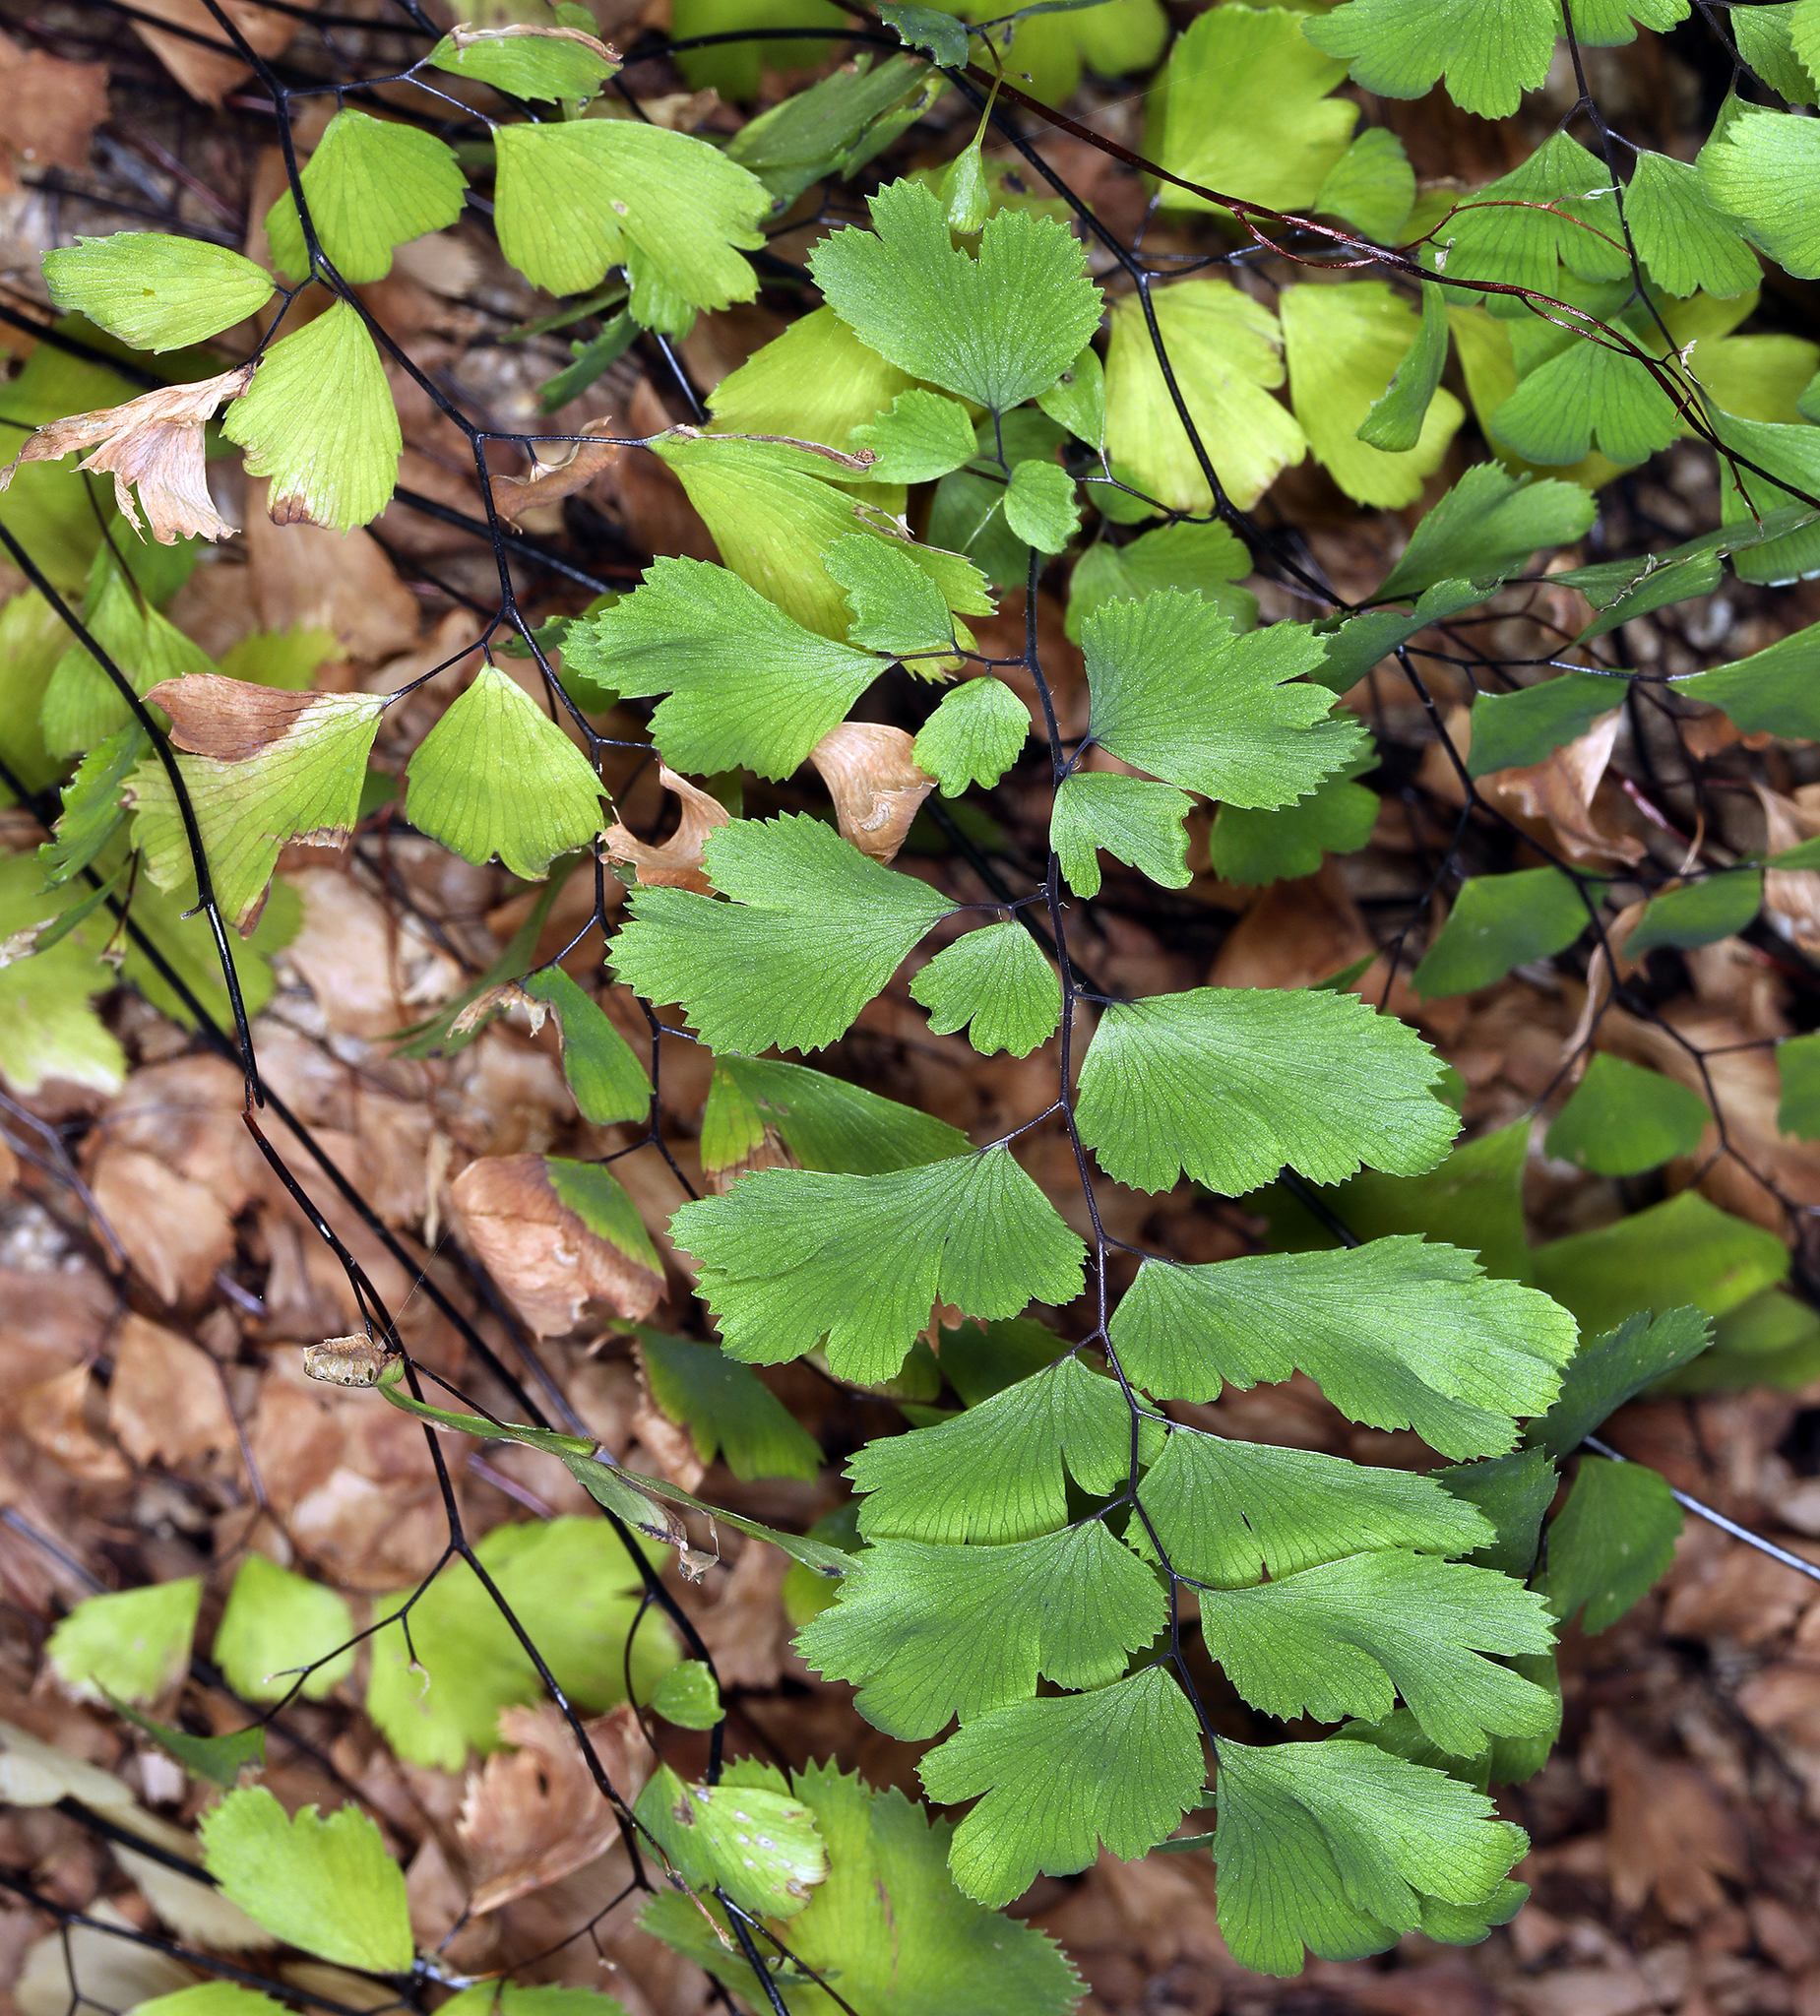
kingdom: Plantae
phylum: Tracheophyta
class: Polypodiopsida
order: Polypodiales
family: Pteridaceae
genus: Adiantum
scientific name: Adiantum capillus-veneris
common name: Maidenhair fern
